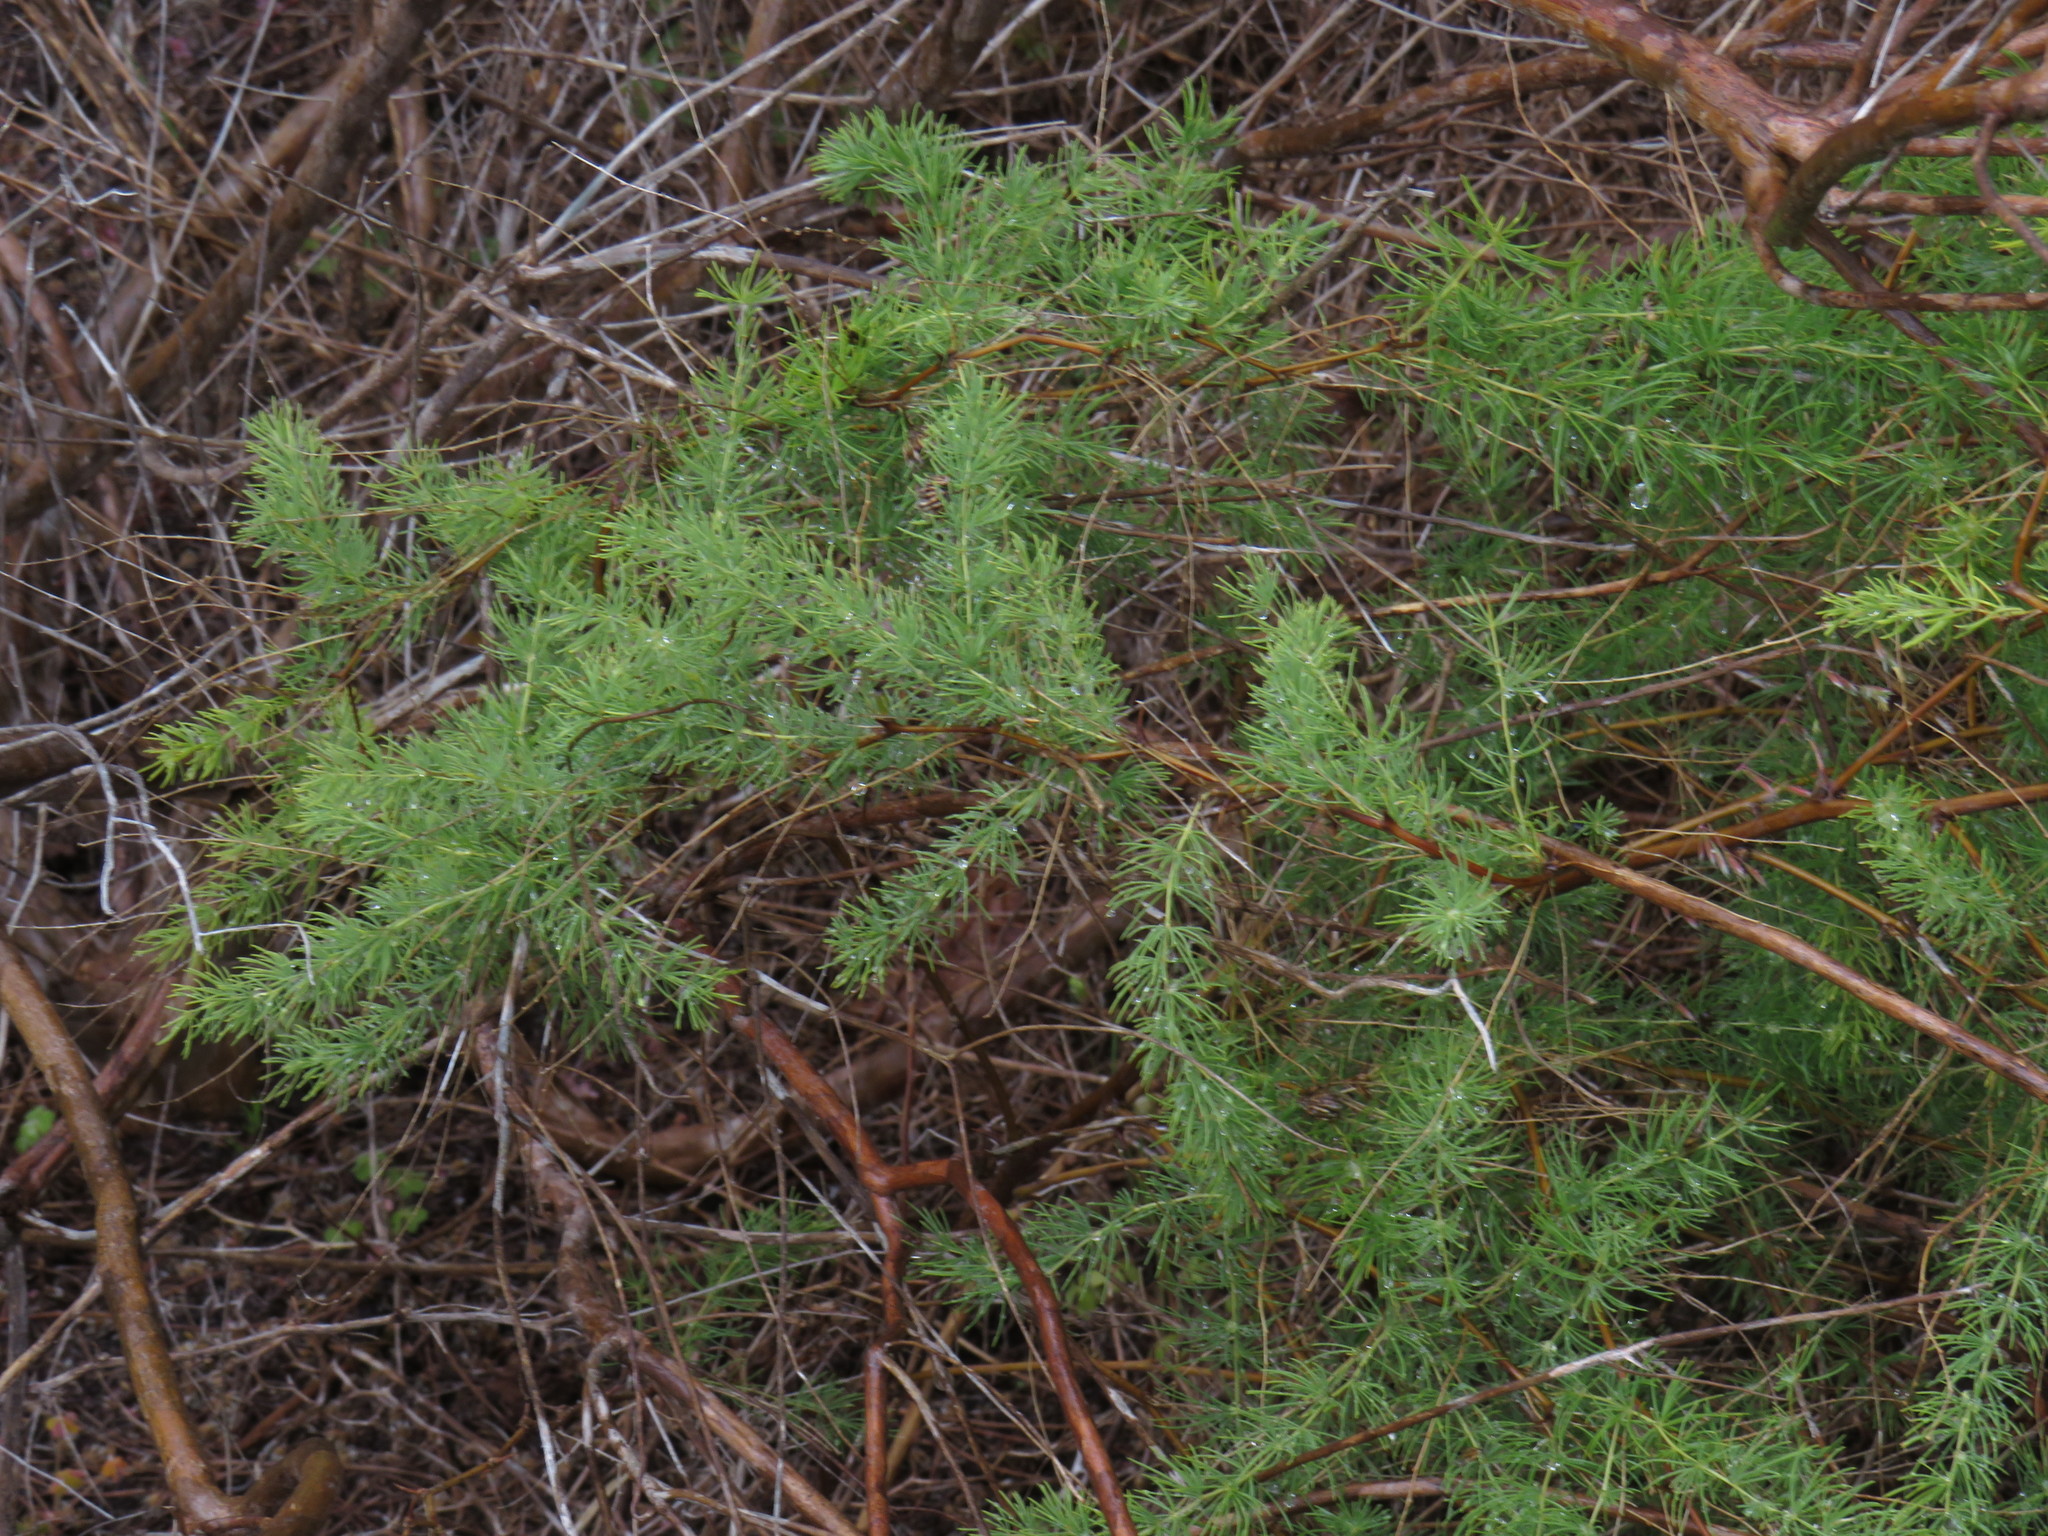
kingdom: Plantae
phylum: Tracheophyta
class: Liliopsida
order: Asparagales
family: Asparagaceae
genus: Asparagus
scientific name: Asparagus rubicundus
